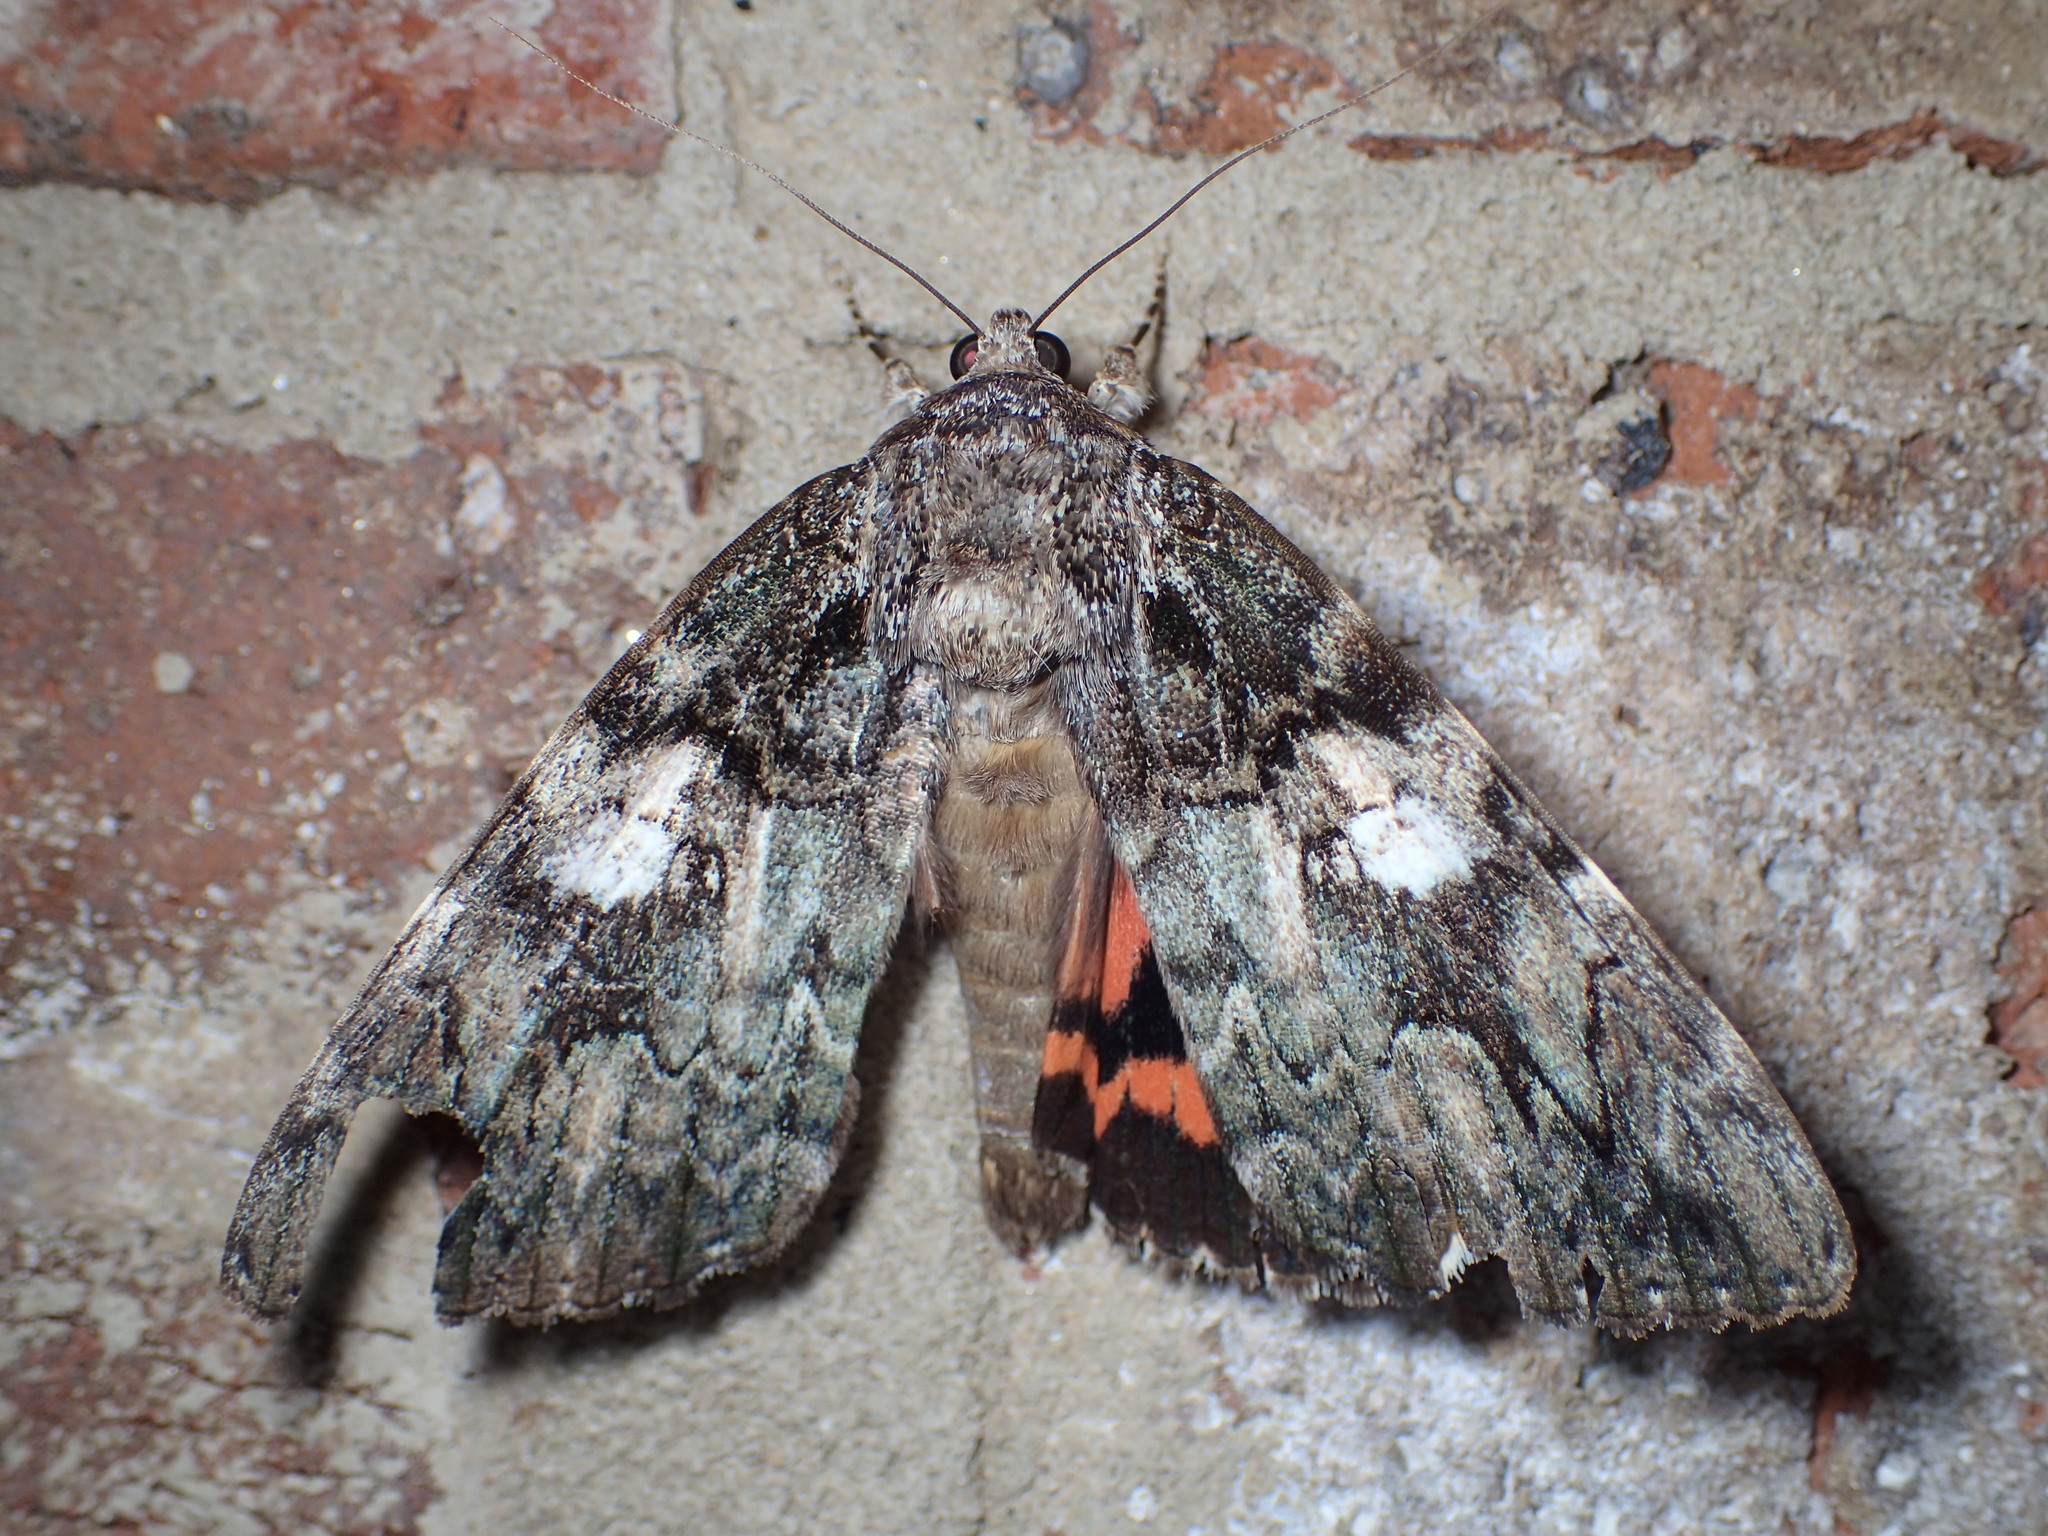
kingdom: Animalia
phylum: Arthropoda
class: Insecta
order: Lepidoptera
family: Erebidae
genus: Catocala
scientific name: Catocala ilia
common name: Ilia underwing
